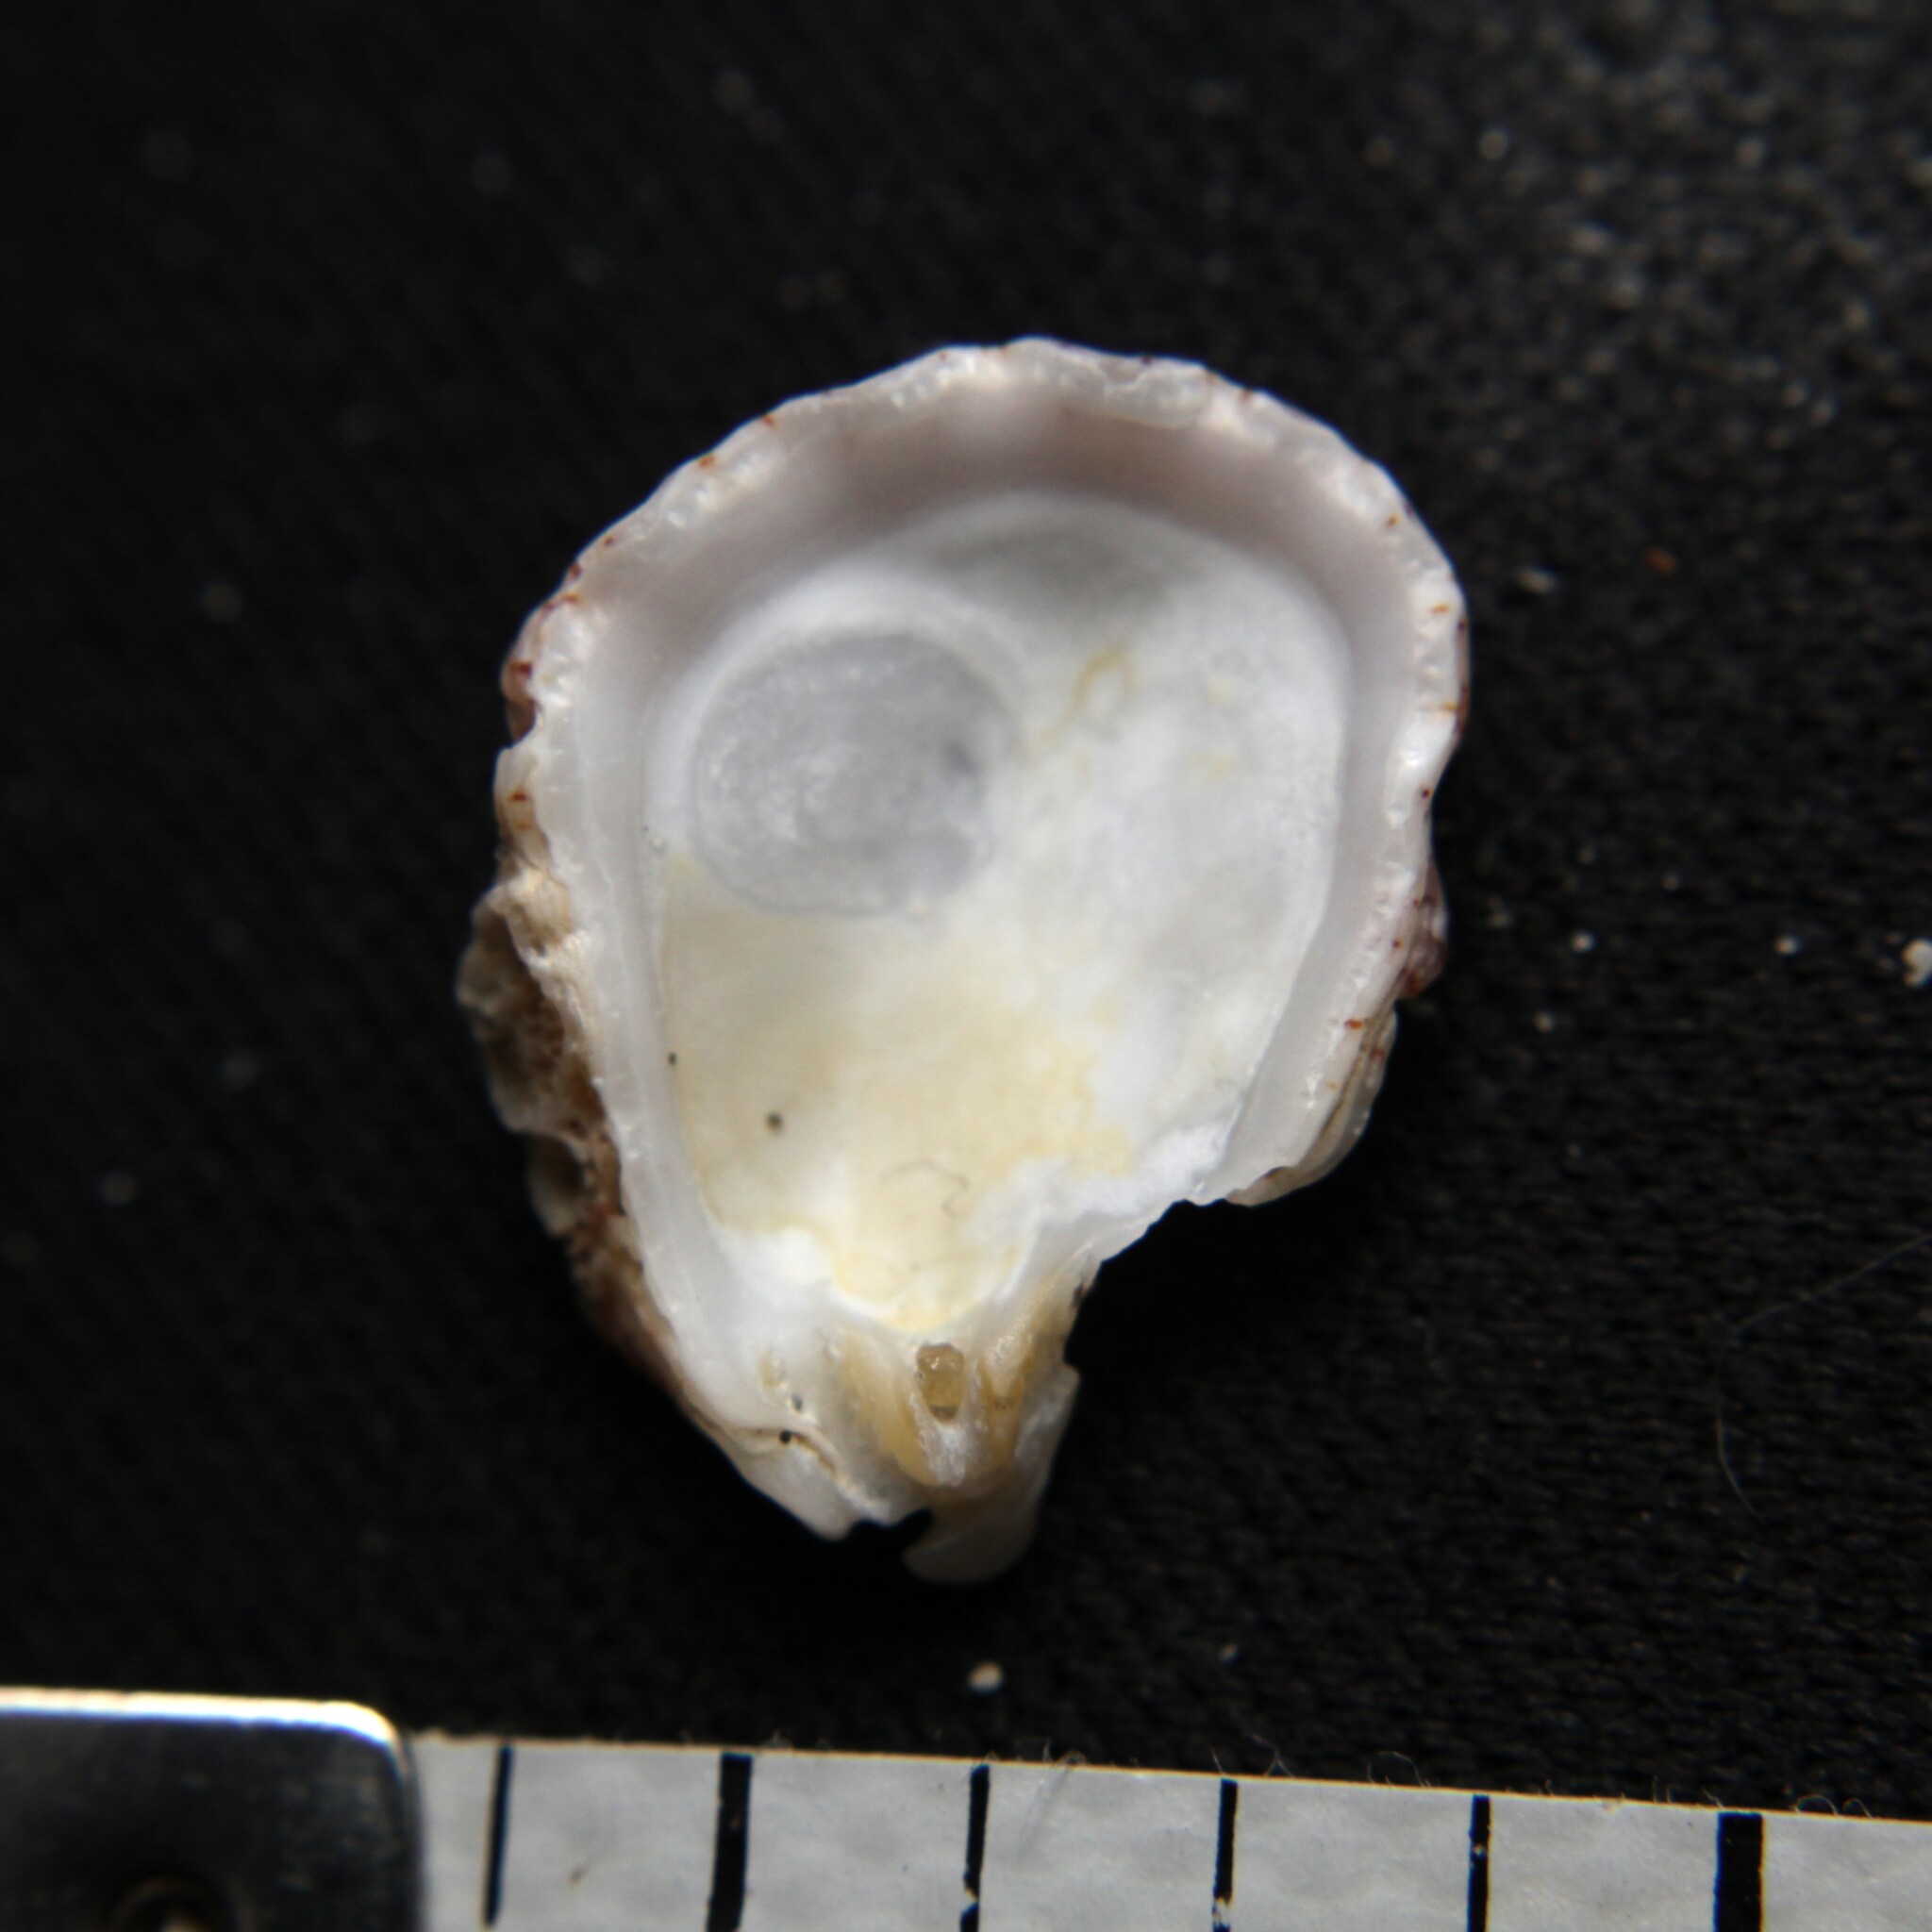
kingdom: Animalia
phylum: Mollusca
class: Bivalvia
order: Pectinida
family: Plicatulidae
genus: Plicatula
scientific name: Plicatula gibbosa
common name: Atlantic kitten's paw
